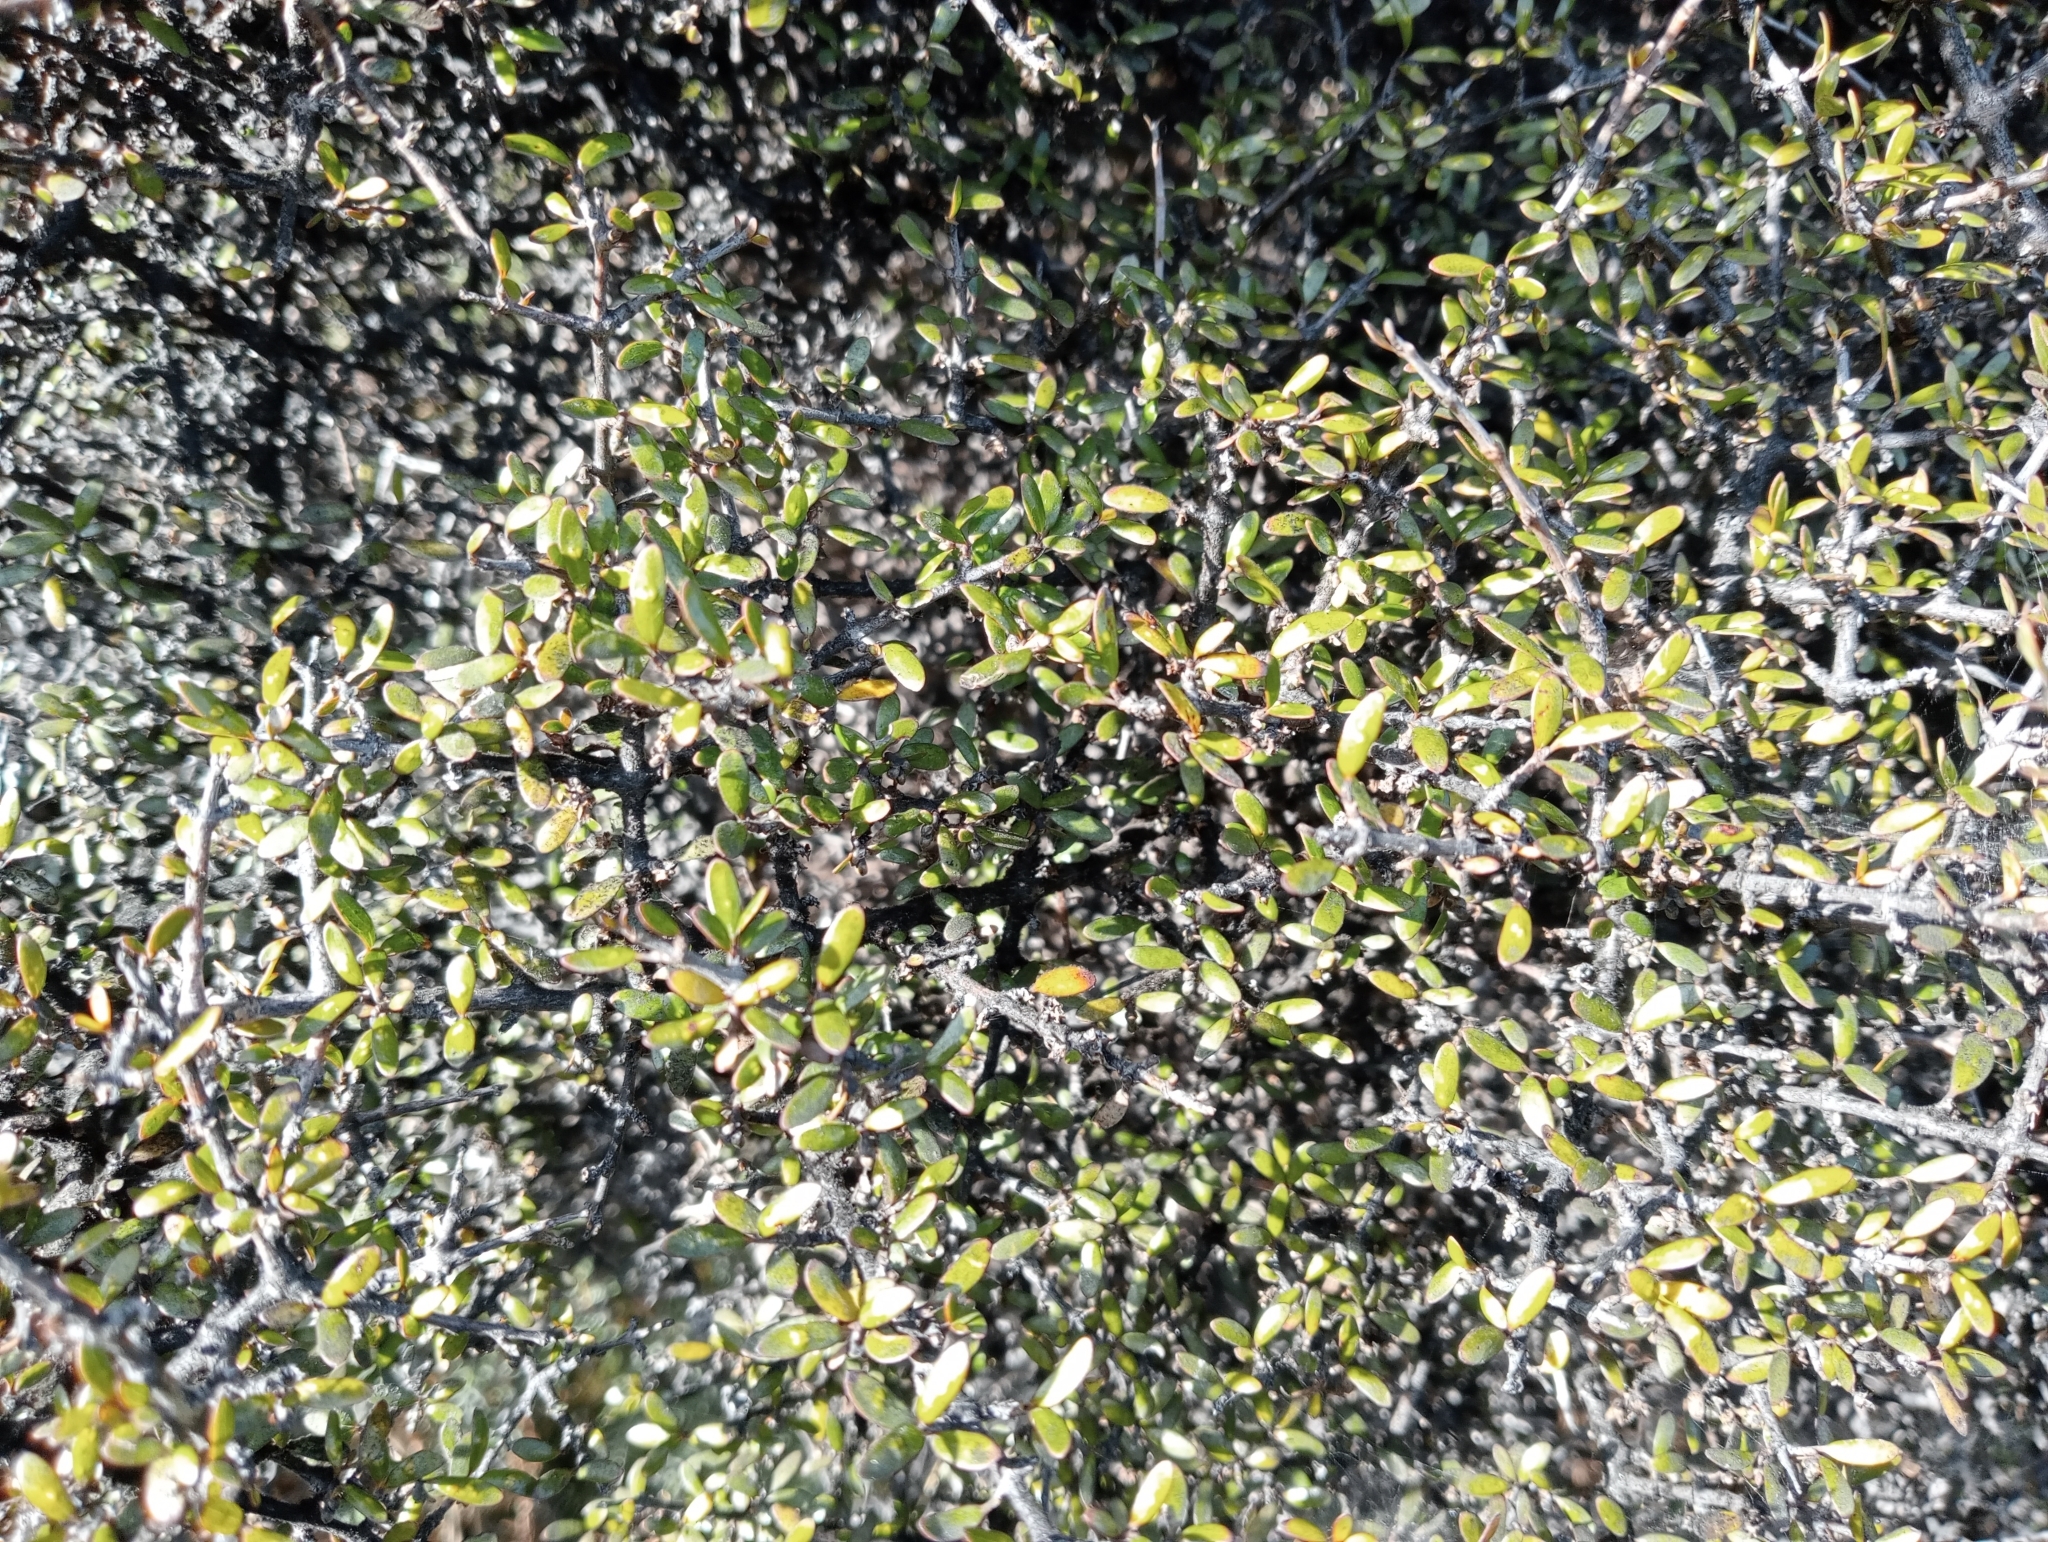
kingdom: Plantae
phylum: Tracheophyta
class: Magnoliopsida
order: Gentianales
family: Rubiaceae
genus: Coprosma
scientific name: Coprosma propinqua
